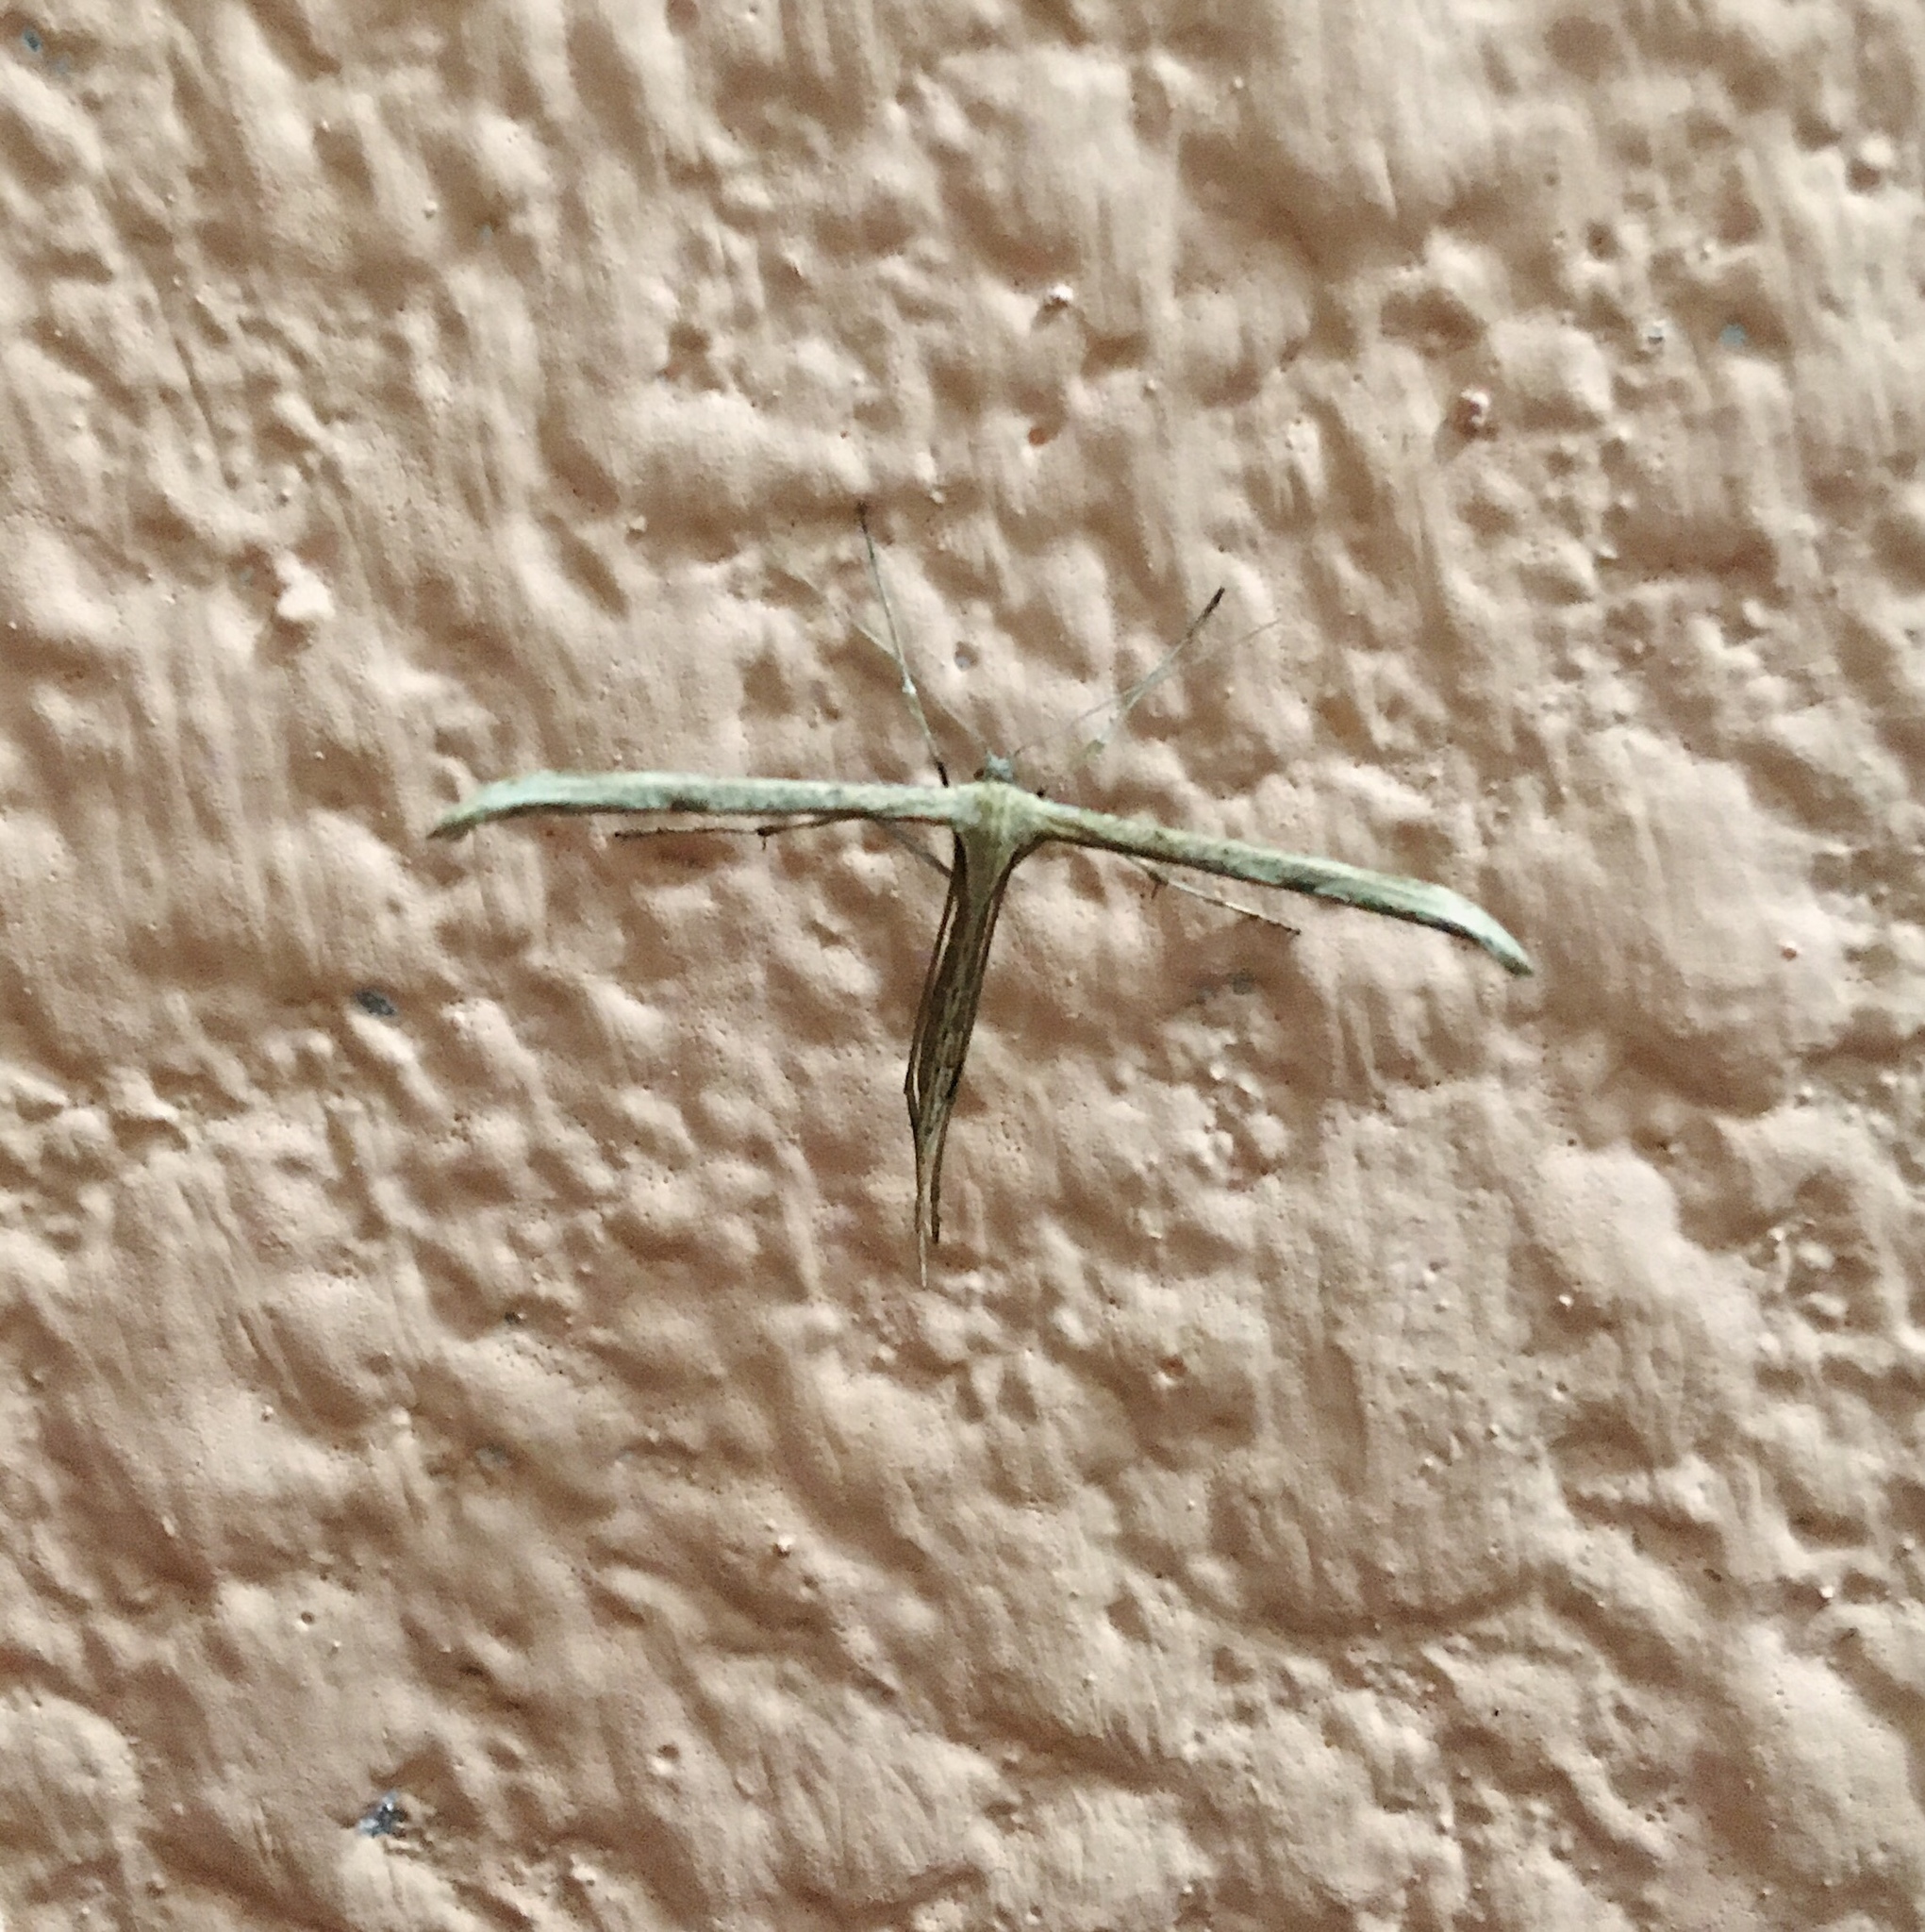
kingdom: Animalia
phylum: Arthropoda
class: Insecta
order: Lepidoptera
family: Pterophoridae
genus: Emmelina
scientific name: Emmelina monodactyla
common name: Common plume
